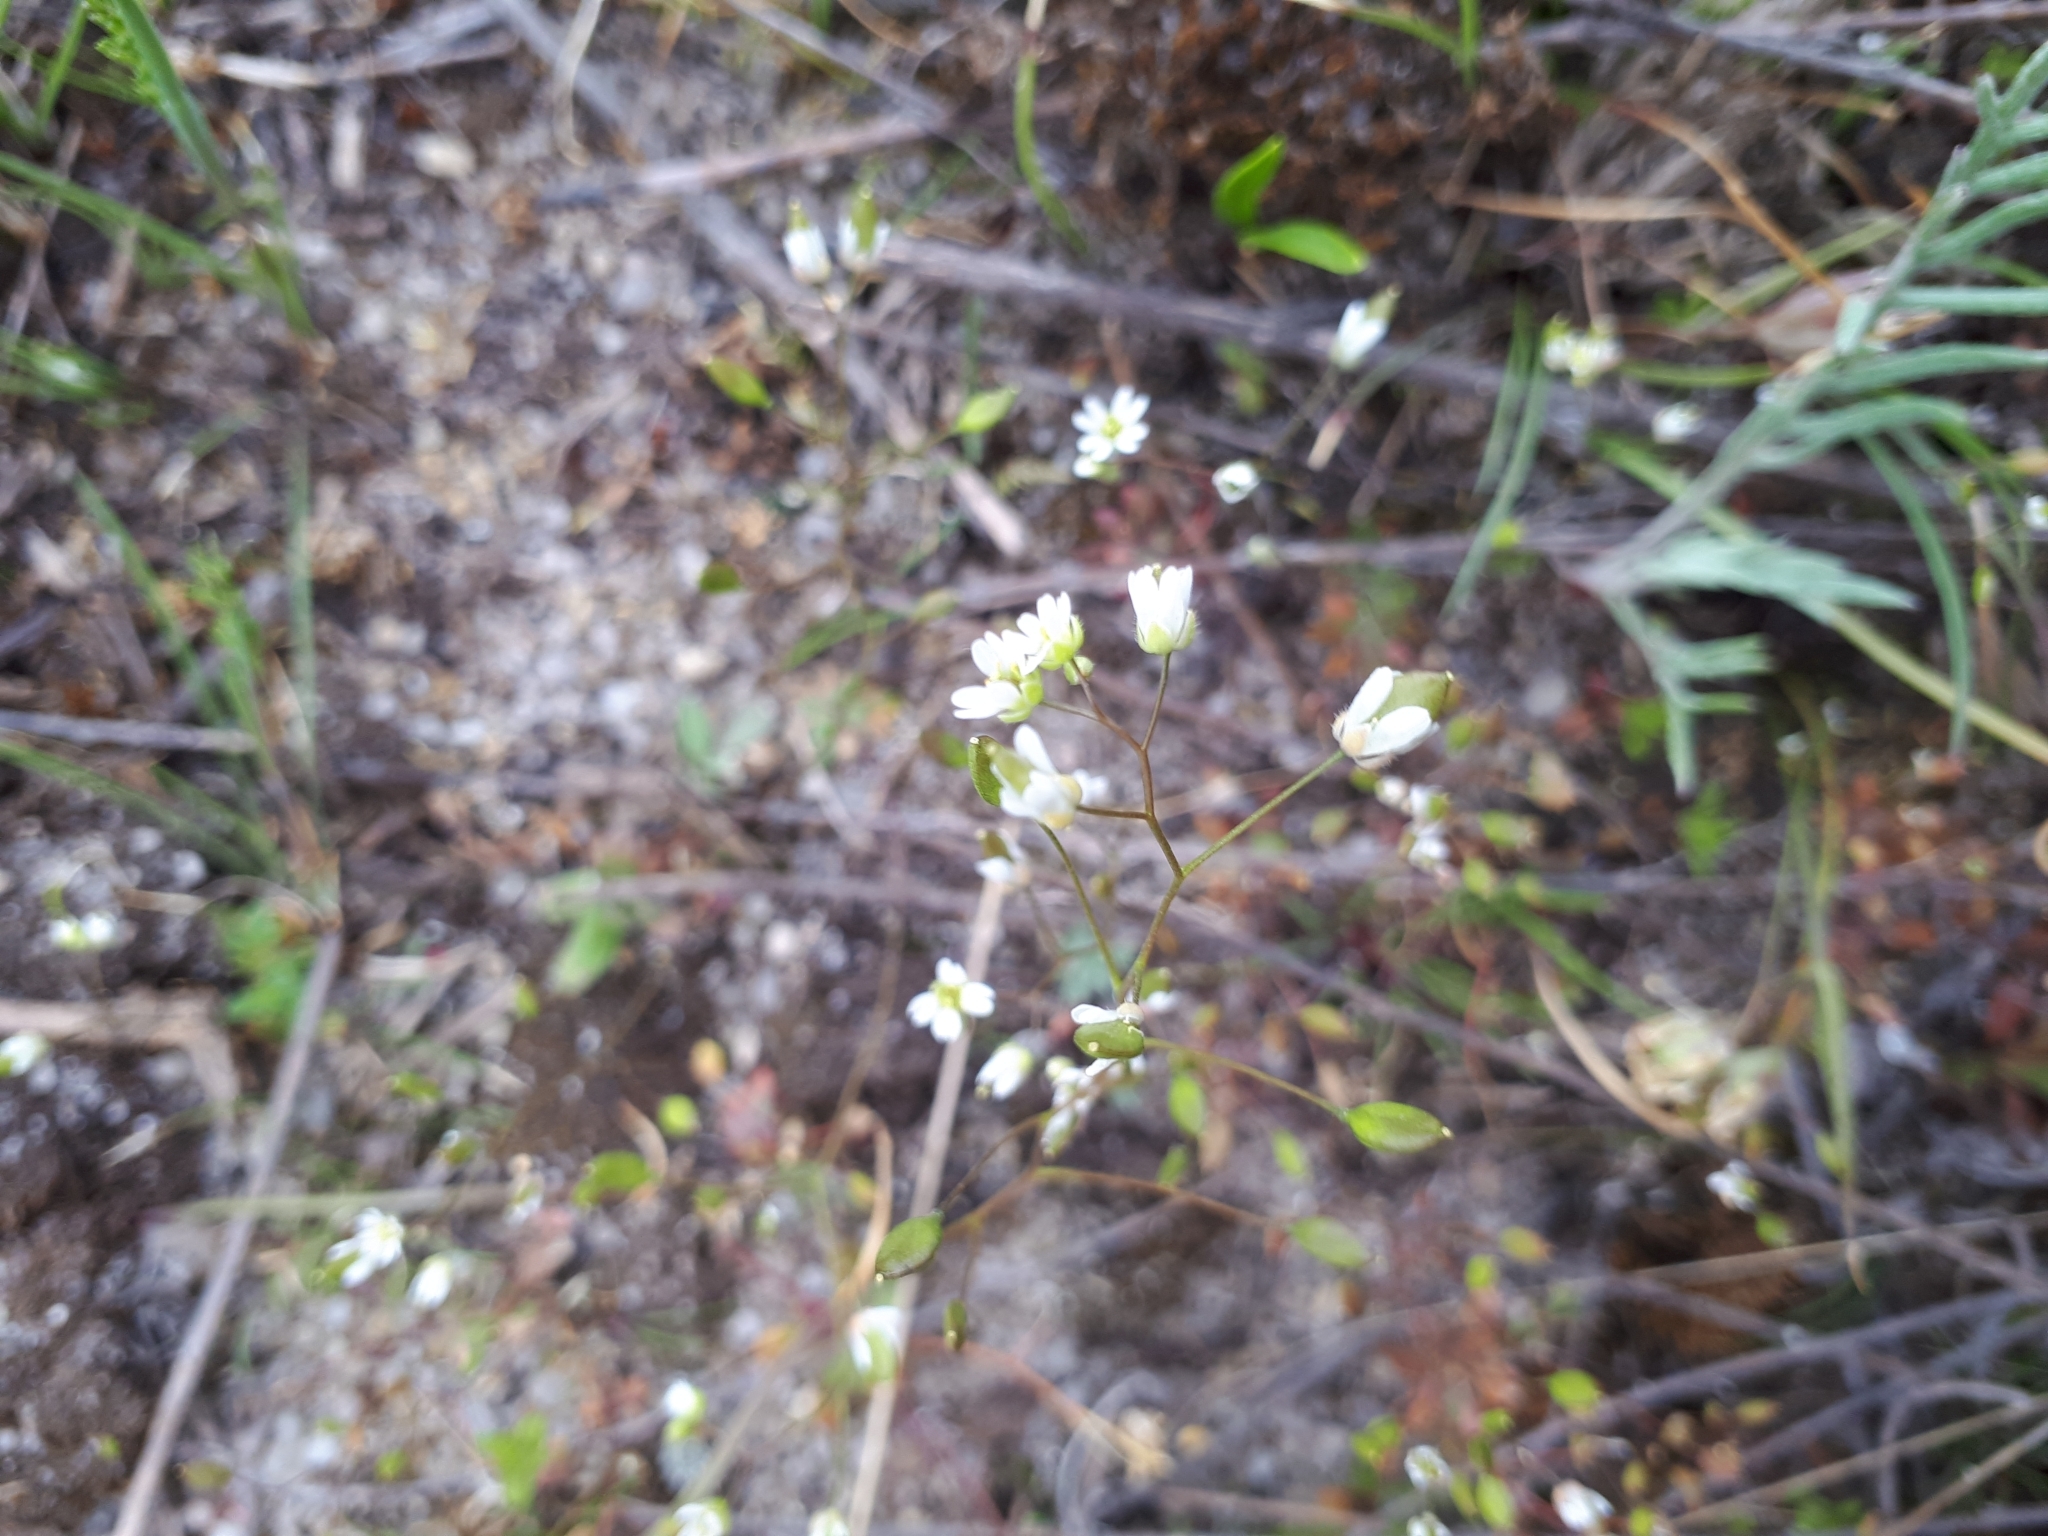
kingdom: Plantae
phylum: Tracheophyta
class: Magnoliopsida
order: Brassicales
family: Brassicaceae
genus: Draba
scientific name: Draba verna
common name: Spring draba
